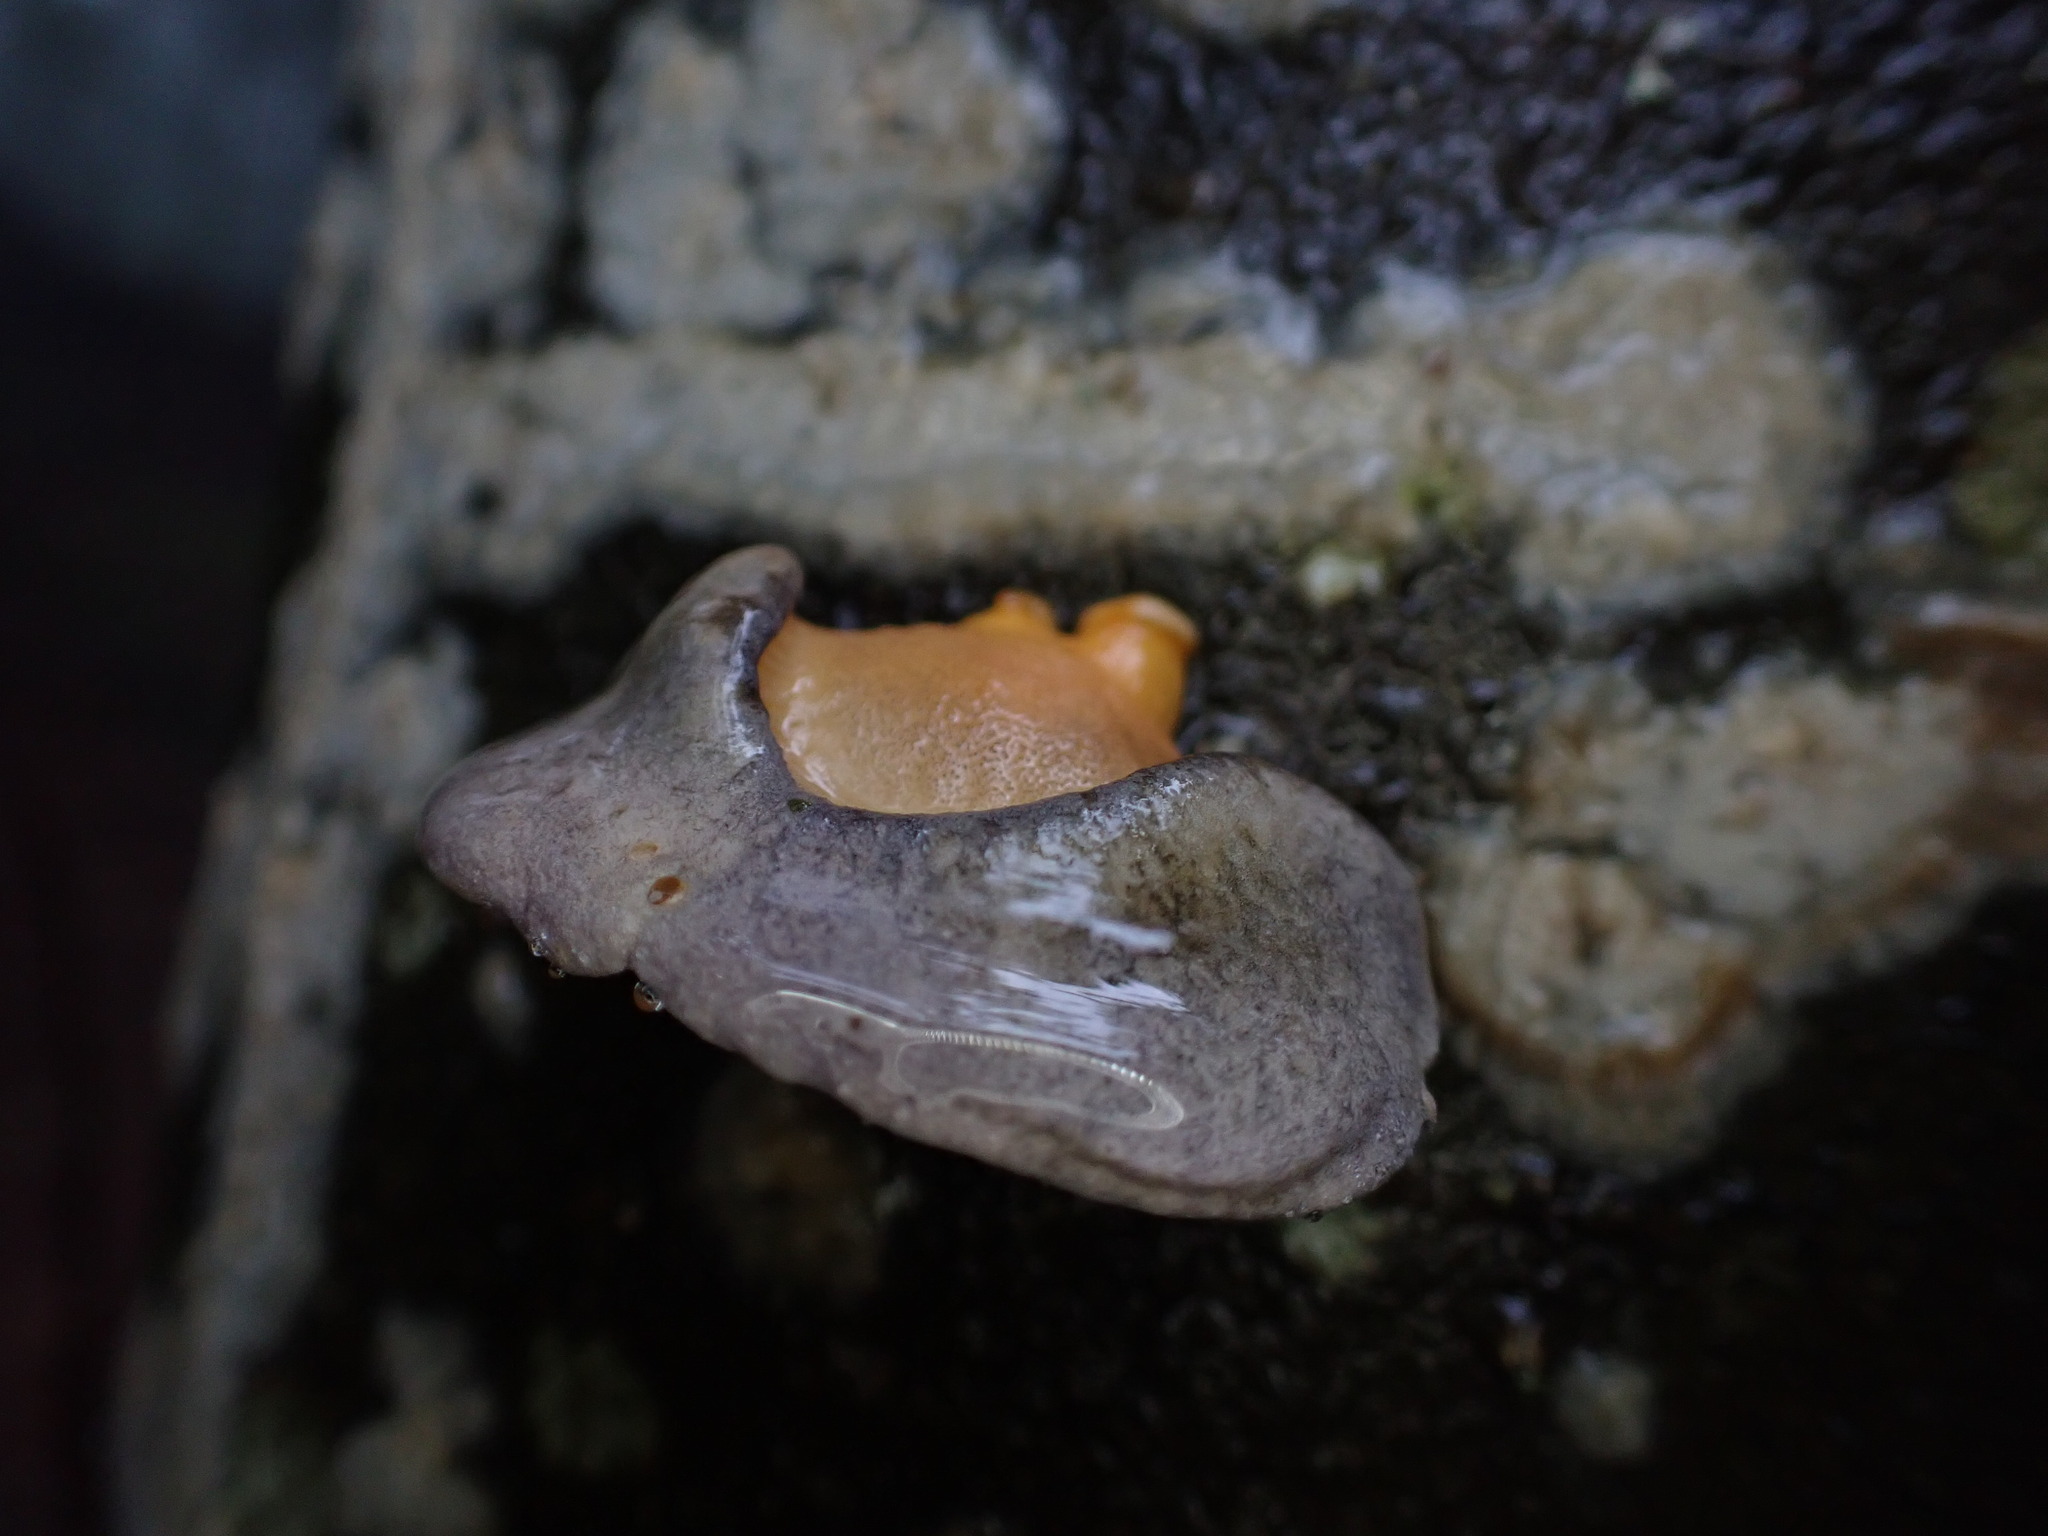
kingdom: Fungi
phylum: Basidiomycota
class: Agaricomycetes
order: Agaricales
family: Sarcomyxaceae
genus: Sarcomyxa
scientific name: Sarcomyxa serotina
